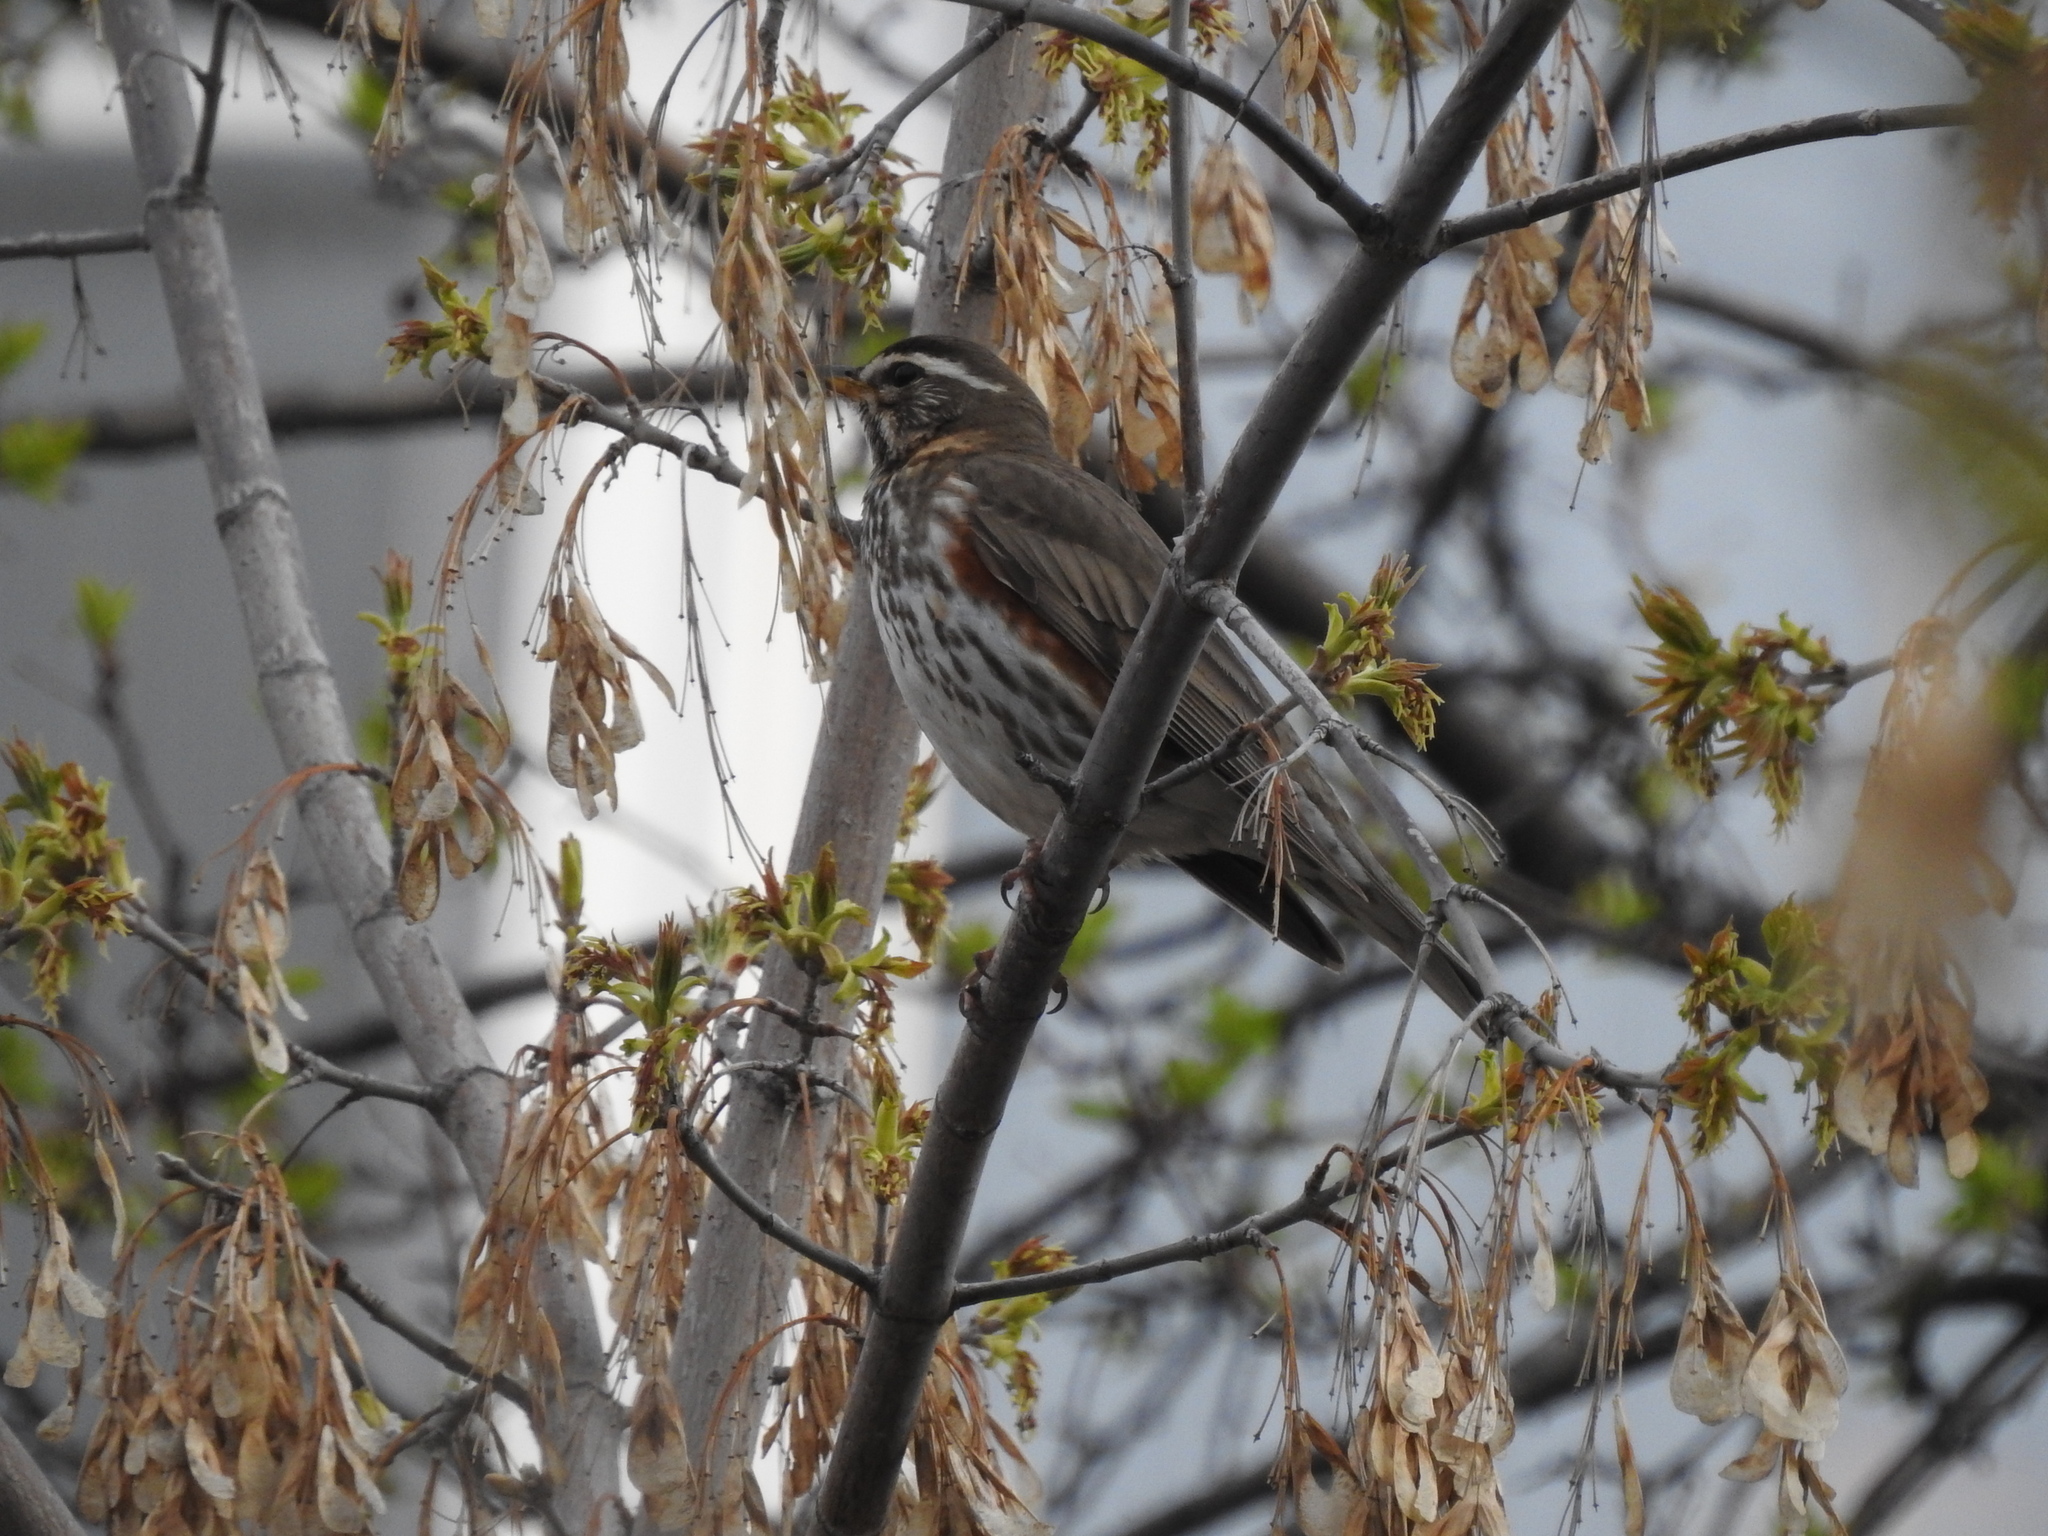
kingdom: Animalia
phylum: Chordata
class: Aves
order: Passeriformes
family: Turdidae
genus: Turdus
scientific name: Turdus iliacus
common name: Redwing
